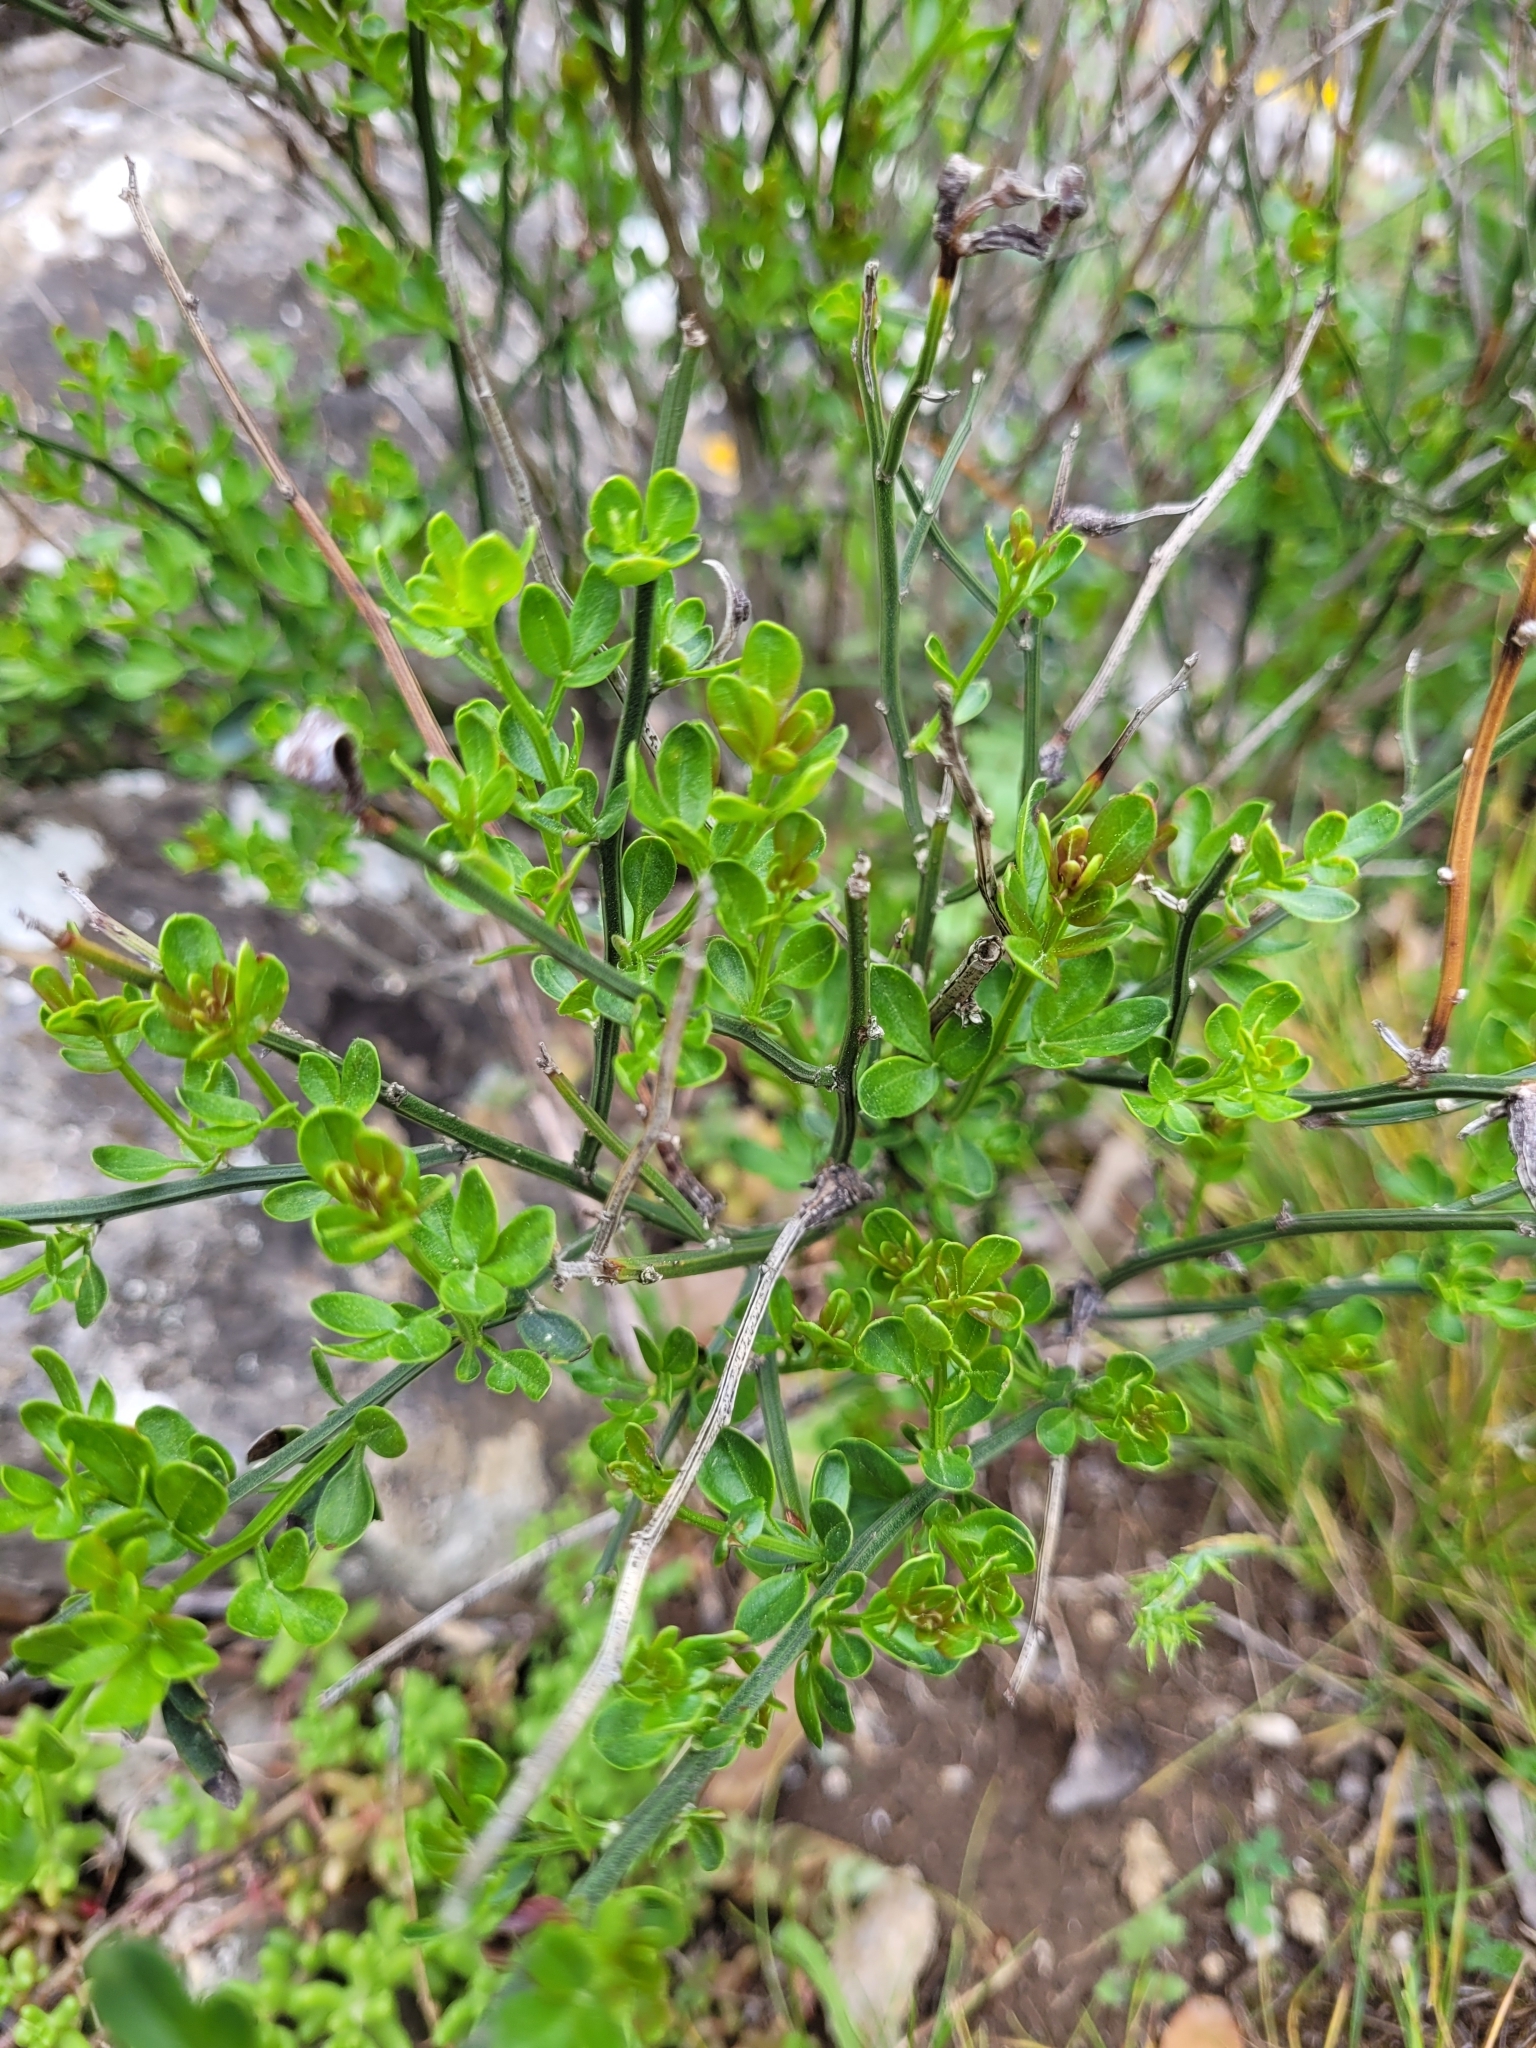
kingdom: Plantae
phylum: Tracheophyta
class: Magnoliopsida
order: Lamiales
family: Oleaceae
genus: Chrysojasminum
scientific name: Chrysojasminum fruticans
